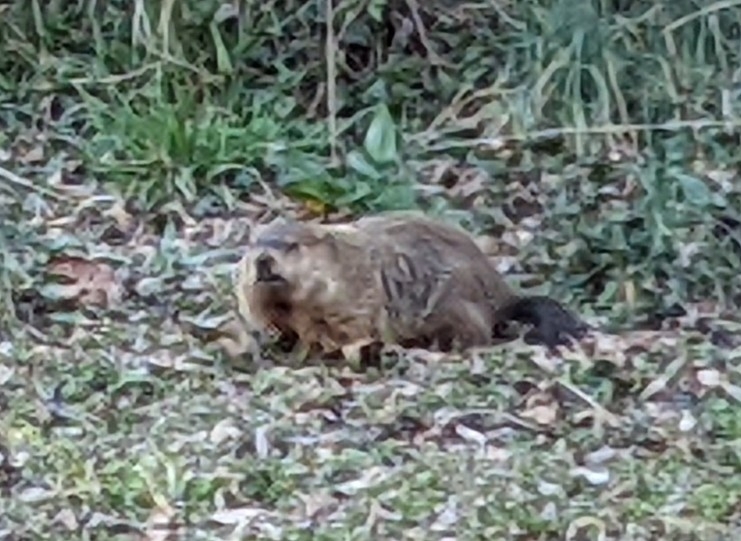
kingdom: Animalia
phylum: Chordata
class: Mammalia
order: Rodentia
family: Sciuridae
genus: Marmota
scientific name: Marmota monax
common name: Groundhog
